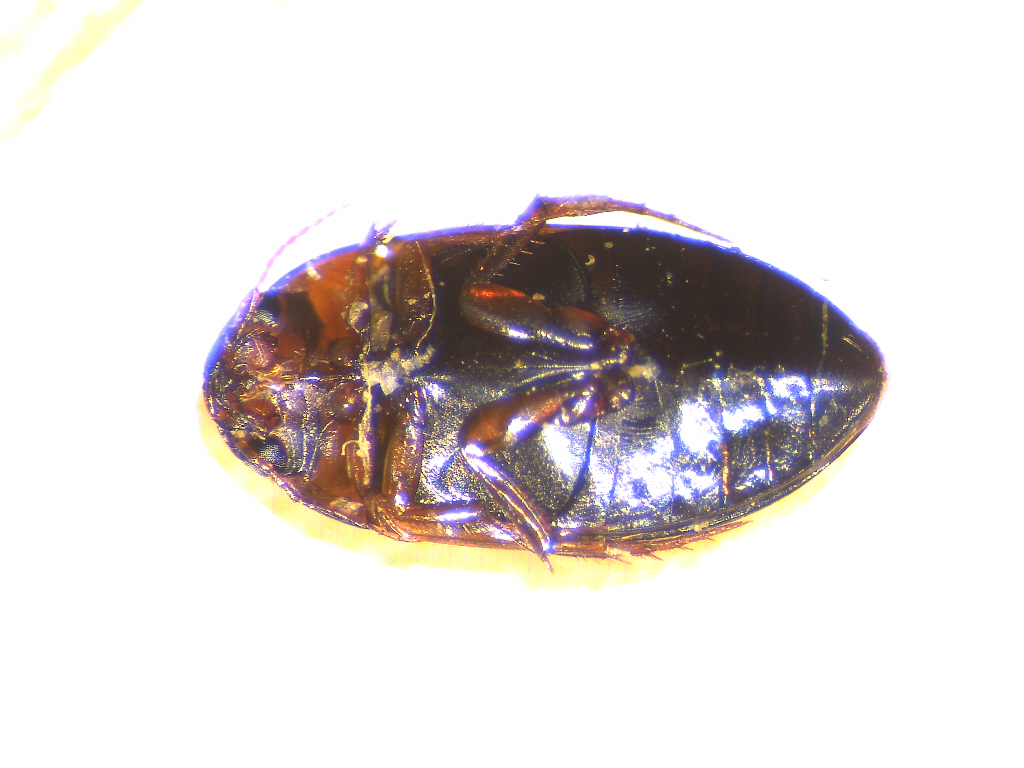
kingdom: Animalia
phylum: Arthropoda
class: Insecta
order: Coleoptera
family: Dytiscidae
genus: Copelatus
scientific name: Copelatus glyphicus
